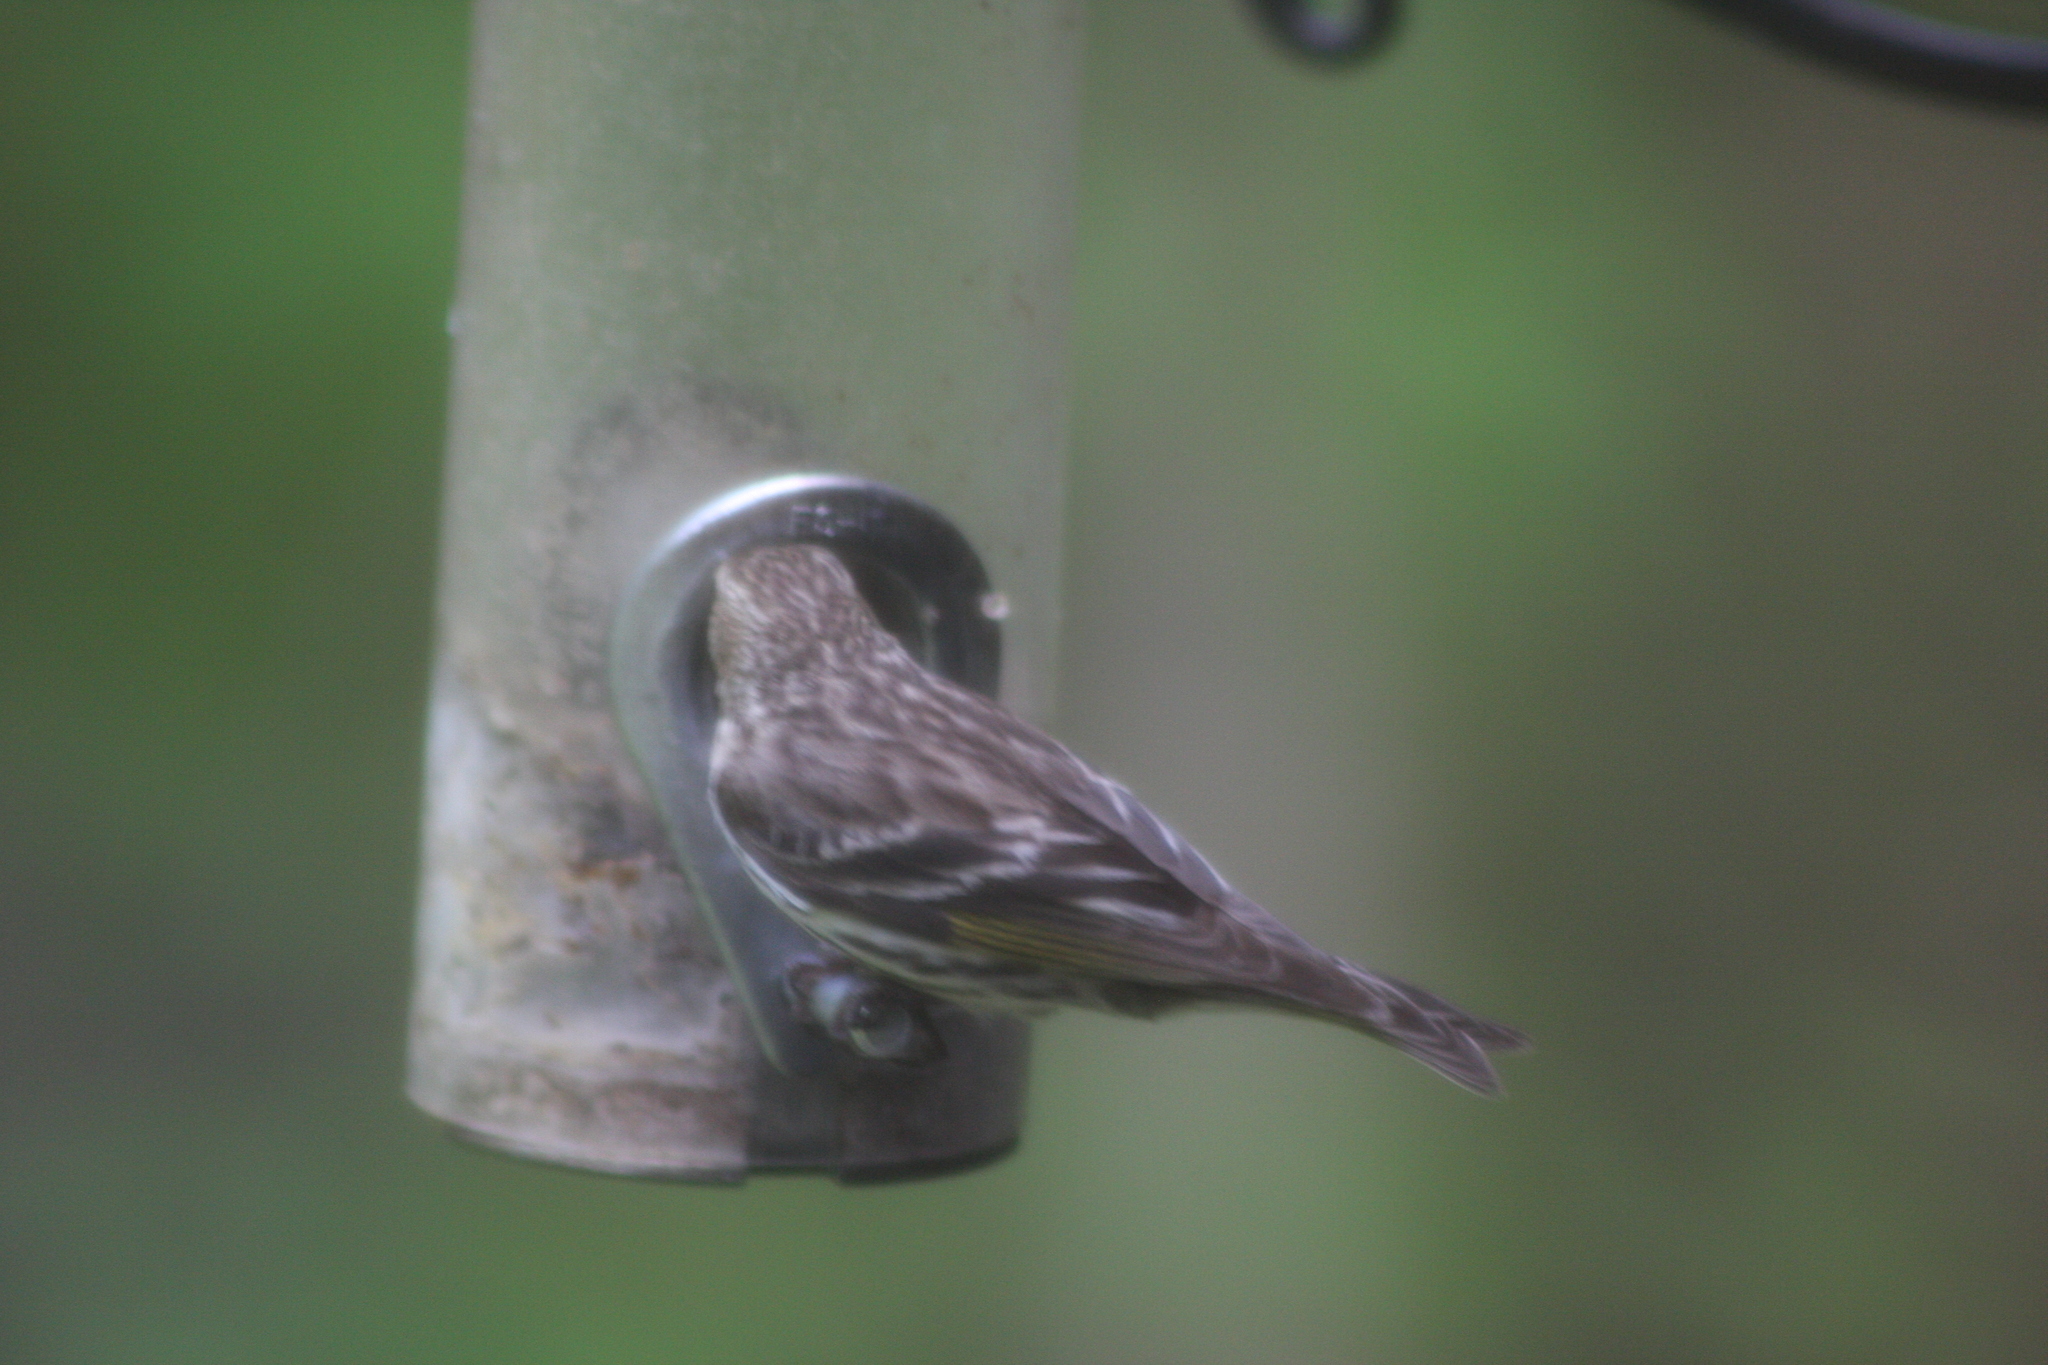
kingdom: Animalia
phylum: Chordata
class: Aves
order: Passeriformes
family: Fringillidae
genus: Spinus
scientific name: Spinus pinus
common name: Pine siskin
